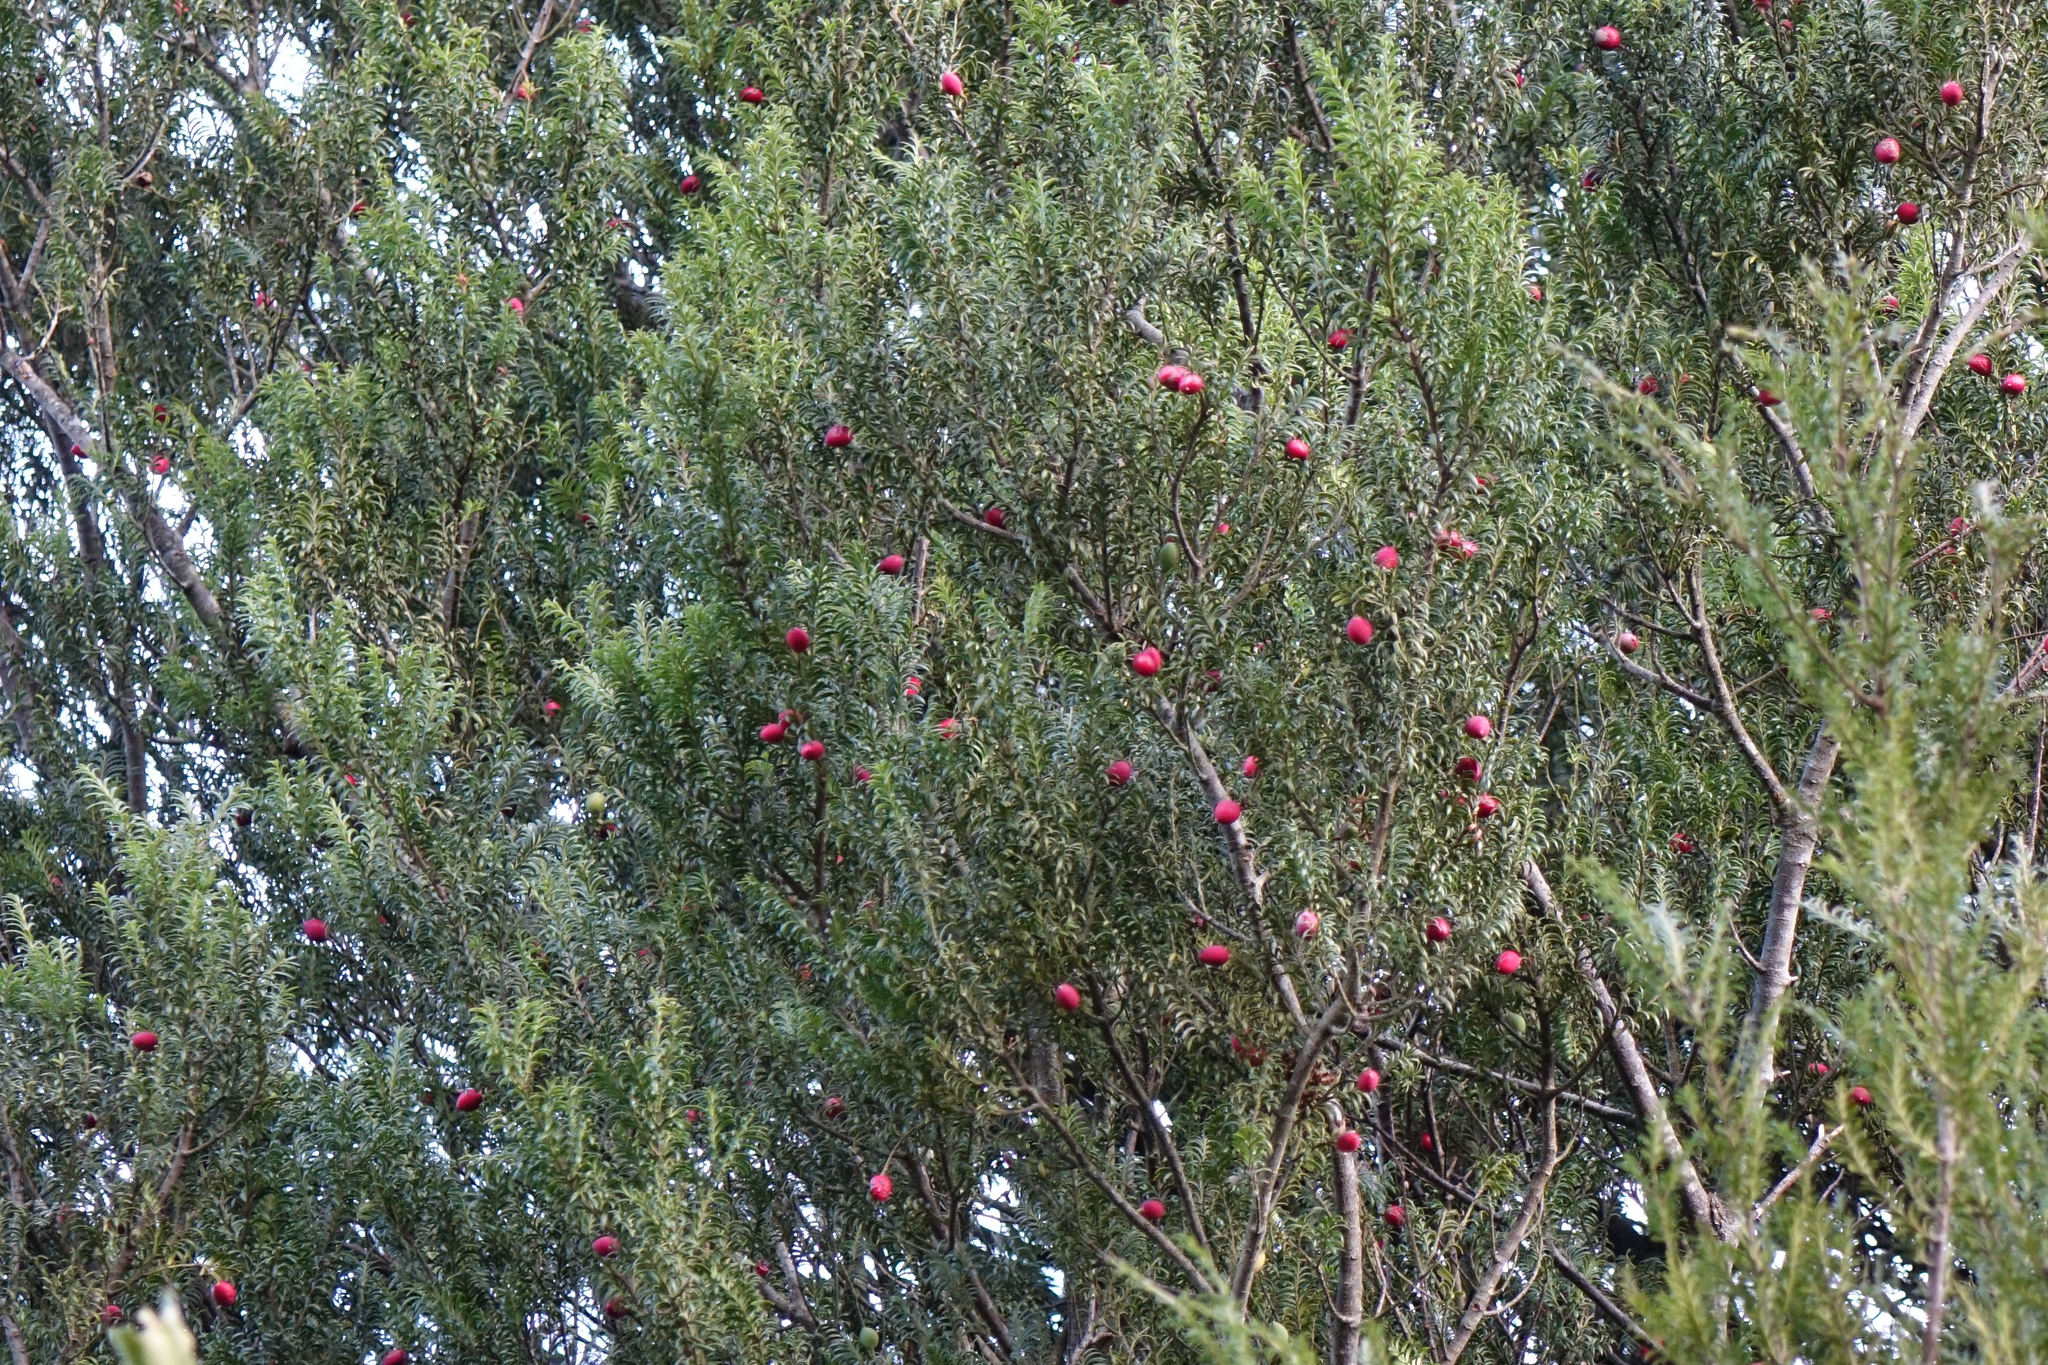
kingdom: Plantae
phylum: Tracheophyta
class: Pinopsida
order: Pinales
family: Podocarpaceae
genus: Prumnopitys
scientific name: Prumnopitys ferruginea
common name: Brown pine
